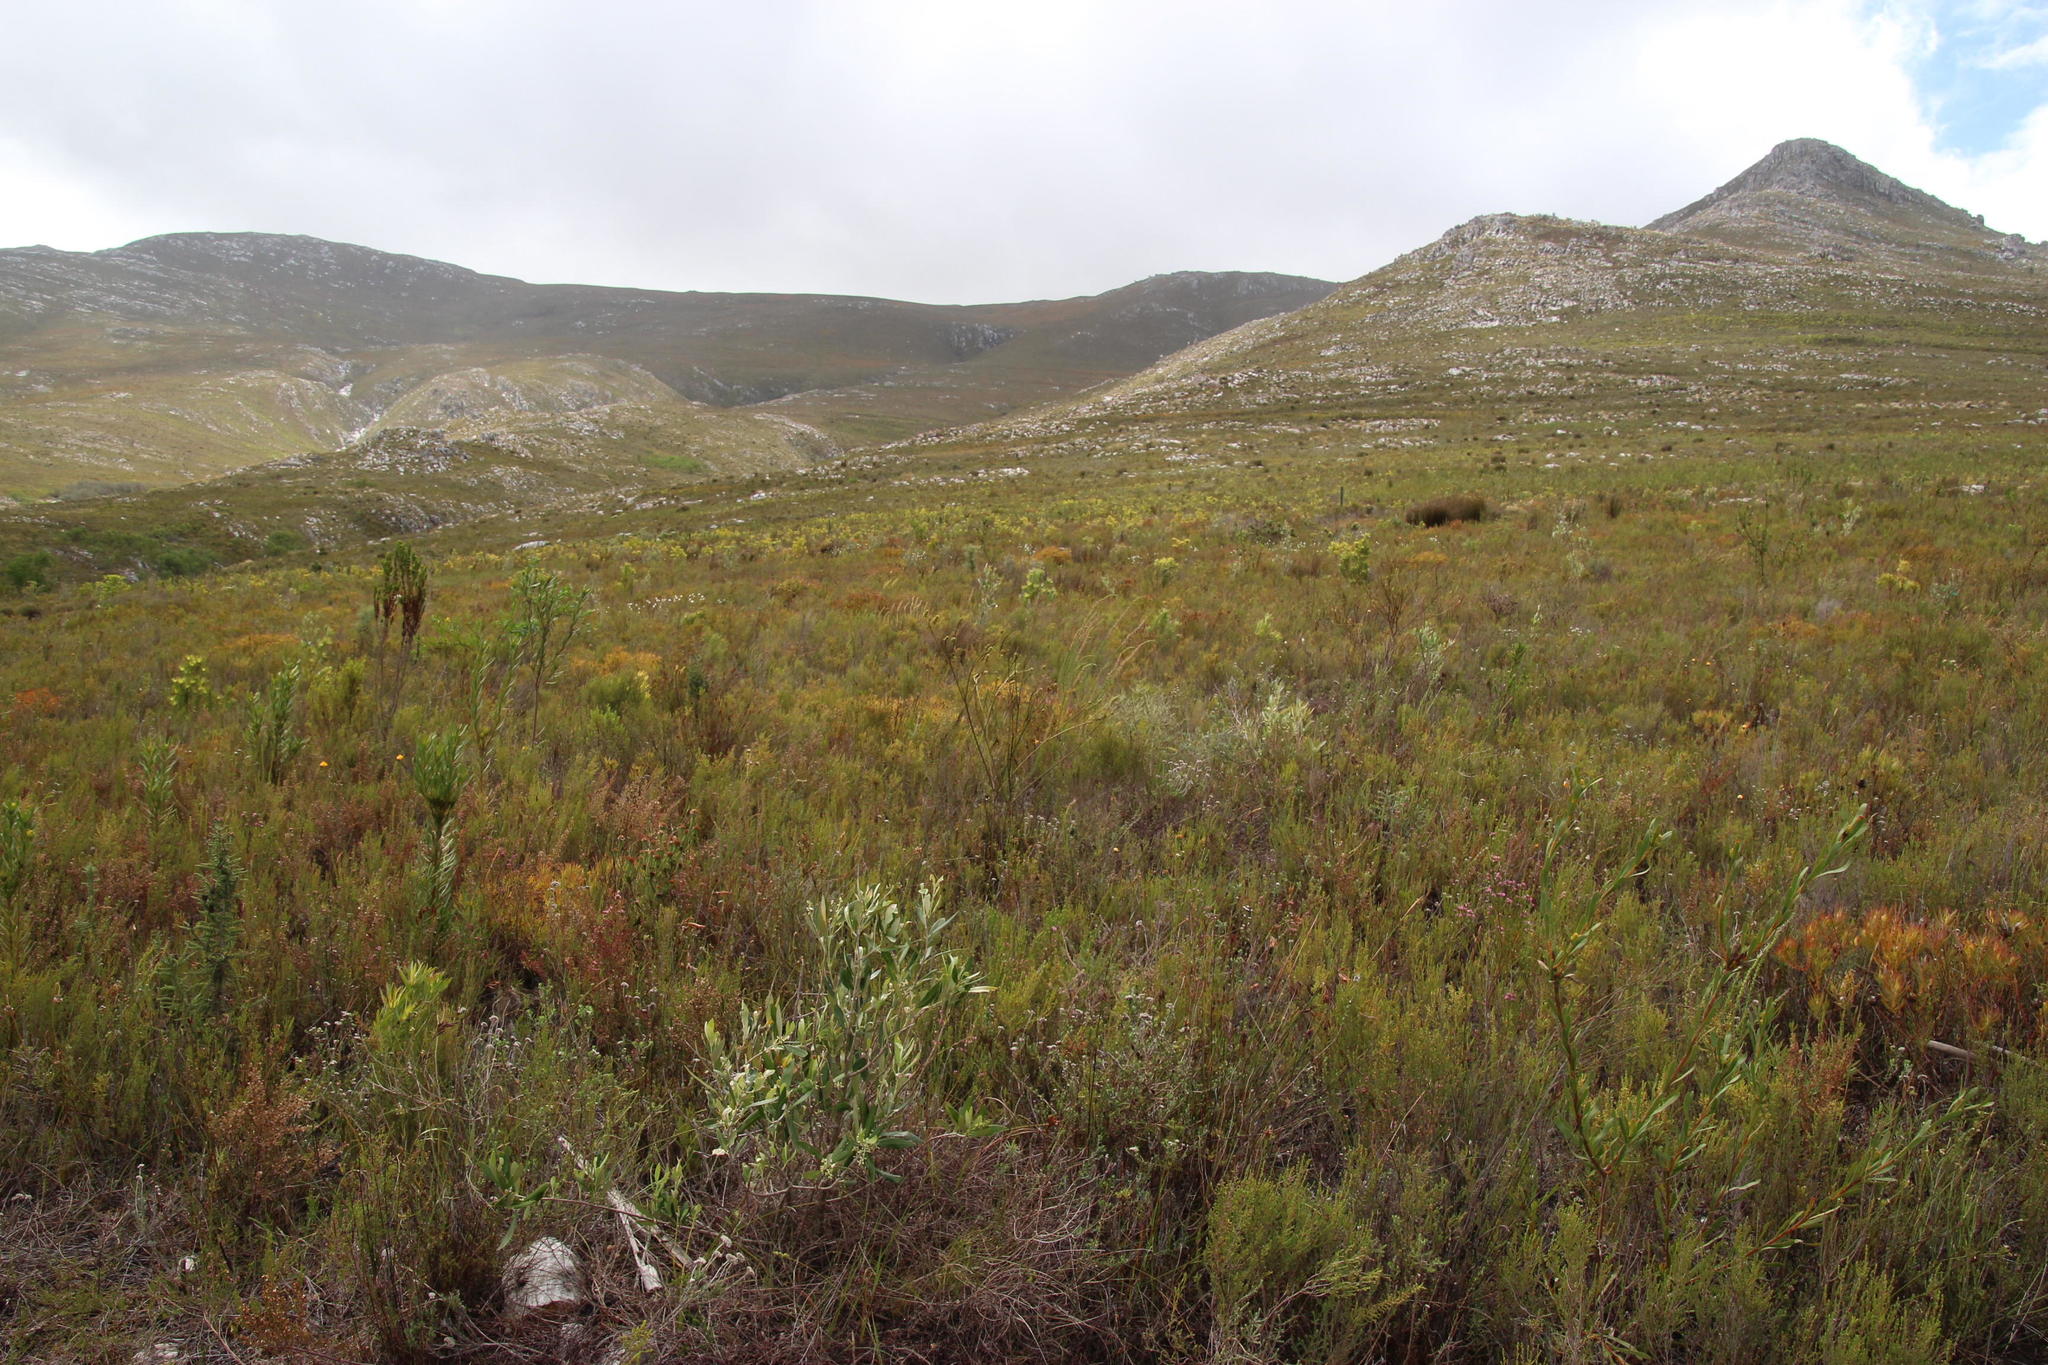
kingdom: Plantae
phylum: Tracheophyta
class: Magnoliopsida
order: Santalales
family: Thesiaceae
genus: Thesium
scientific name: Thesium spicatum
